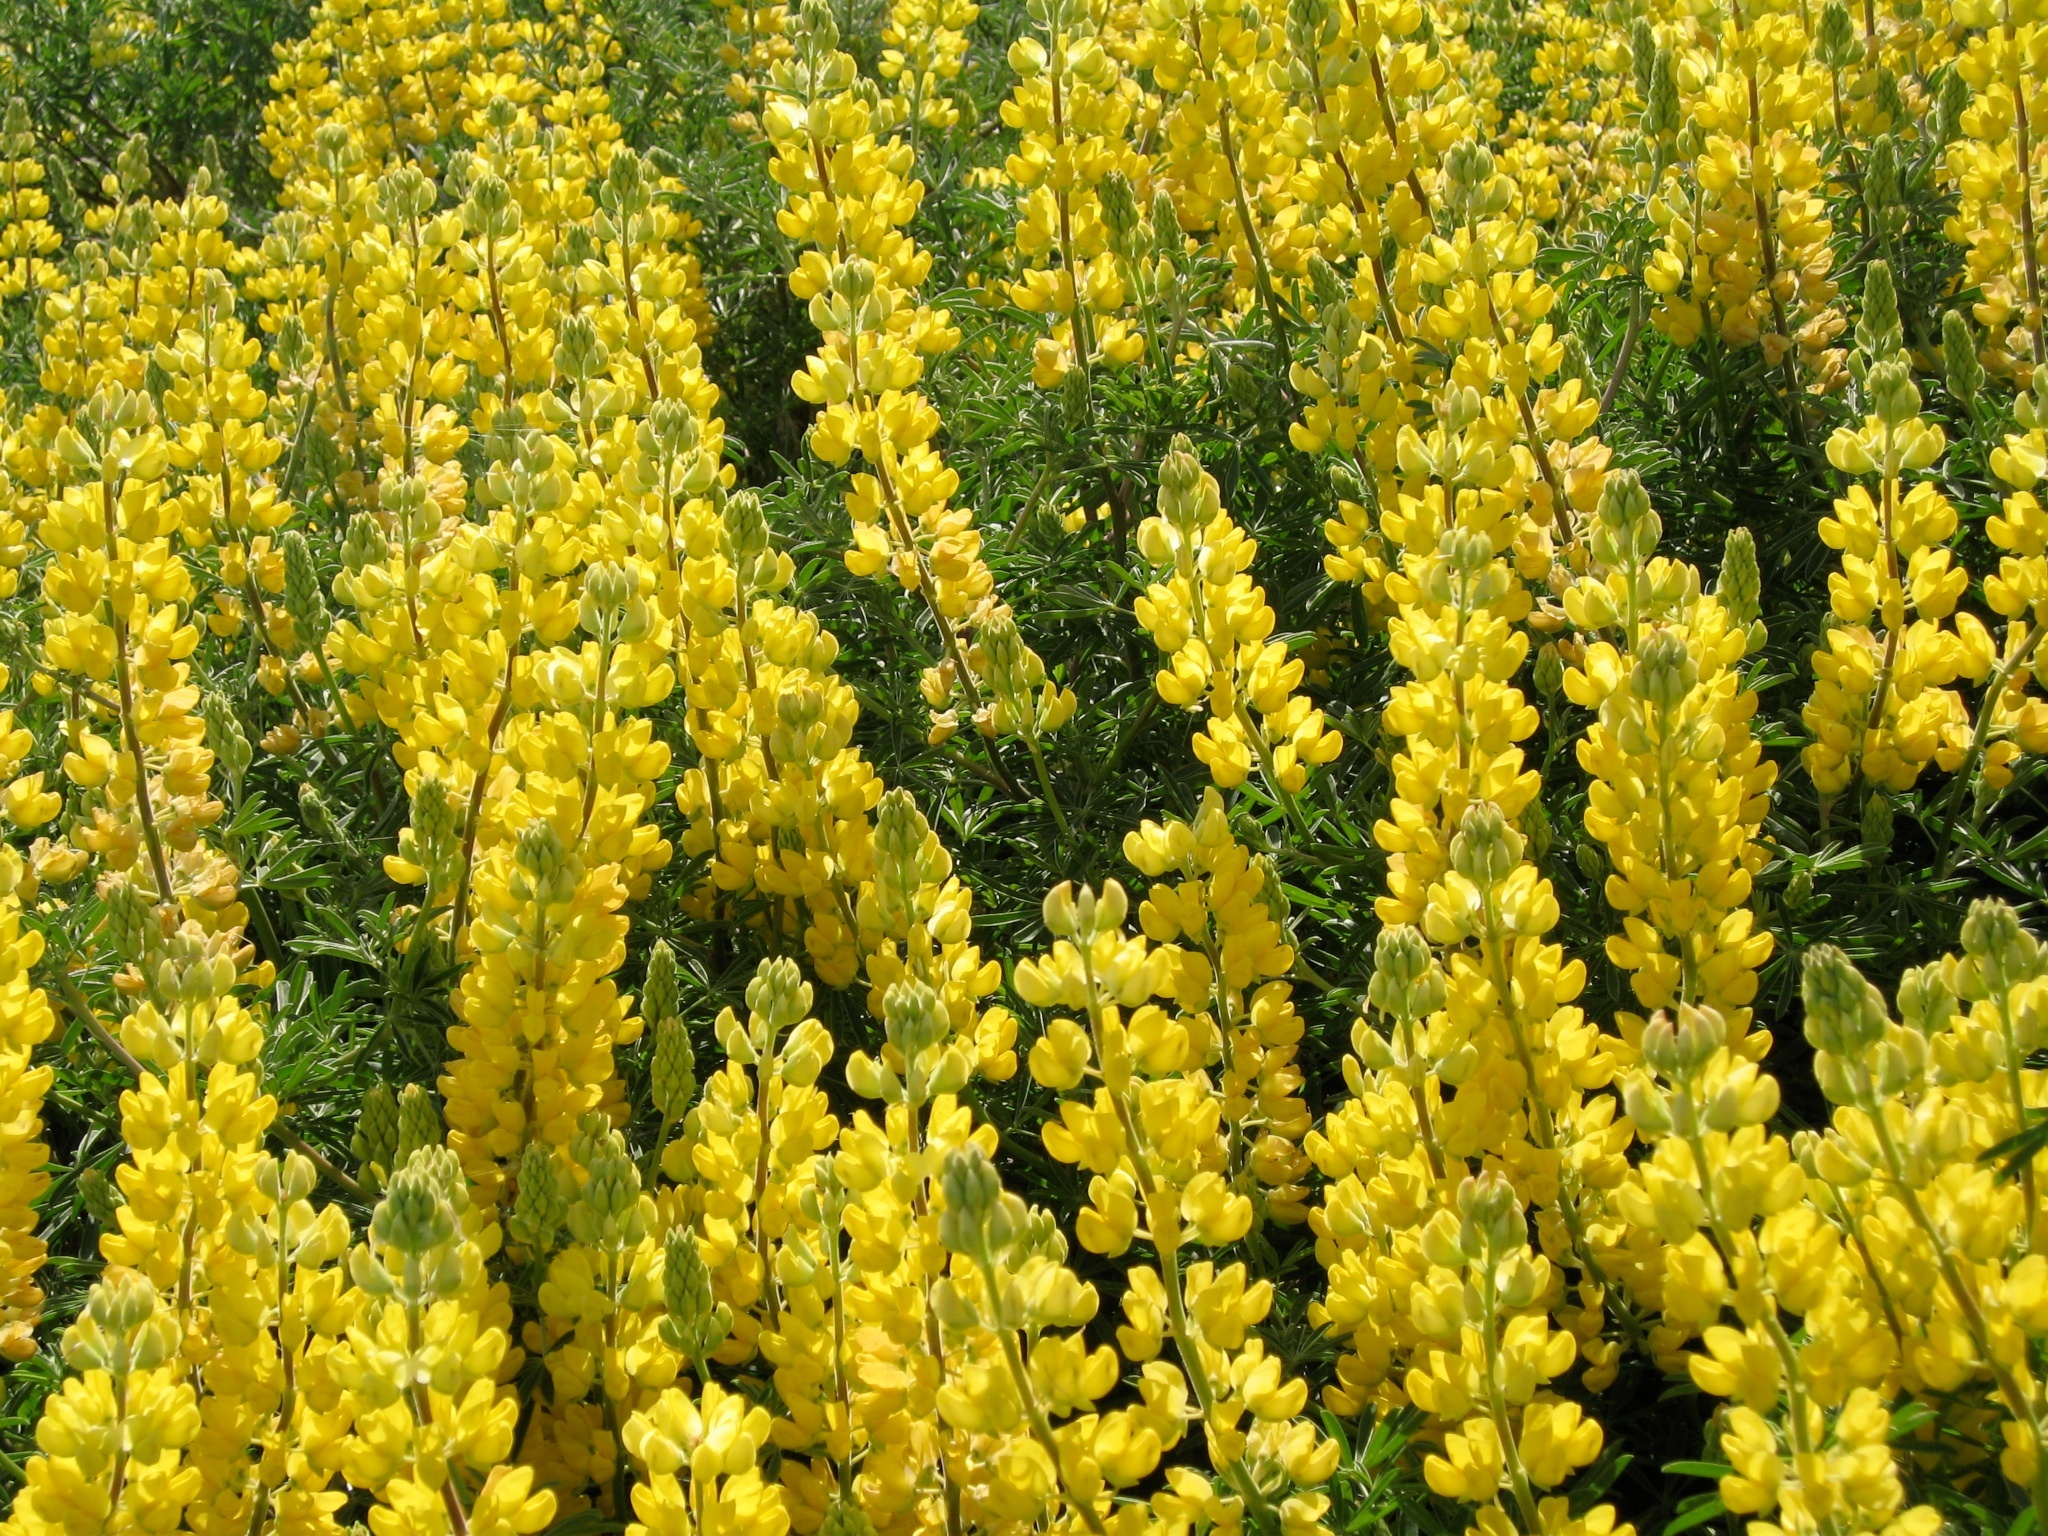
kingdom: Plantae
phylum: Tracheophyta
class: Magnoliopsida
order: Fabales
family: Fabaceae
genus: Lupinus
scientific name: Lupinus arboreus
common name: Yellow bush lupine
